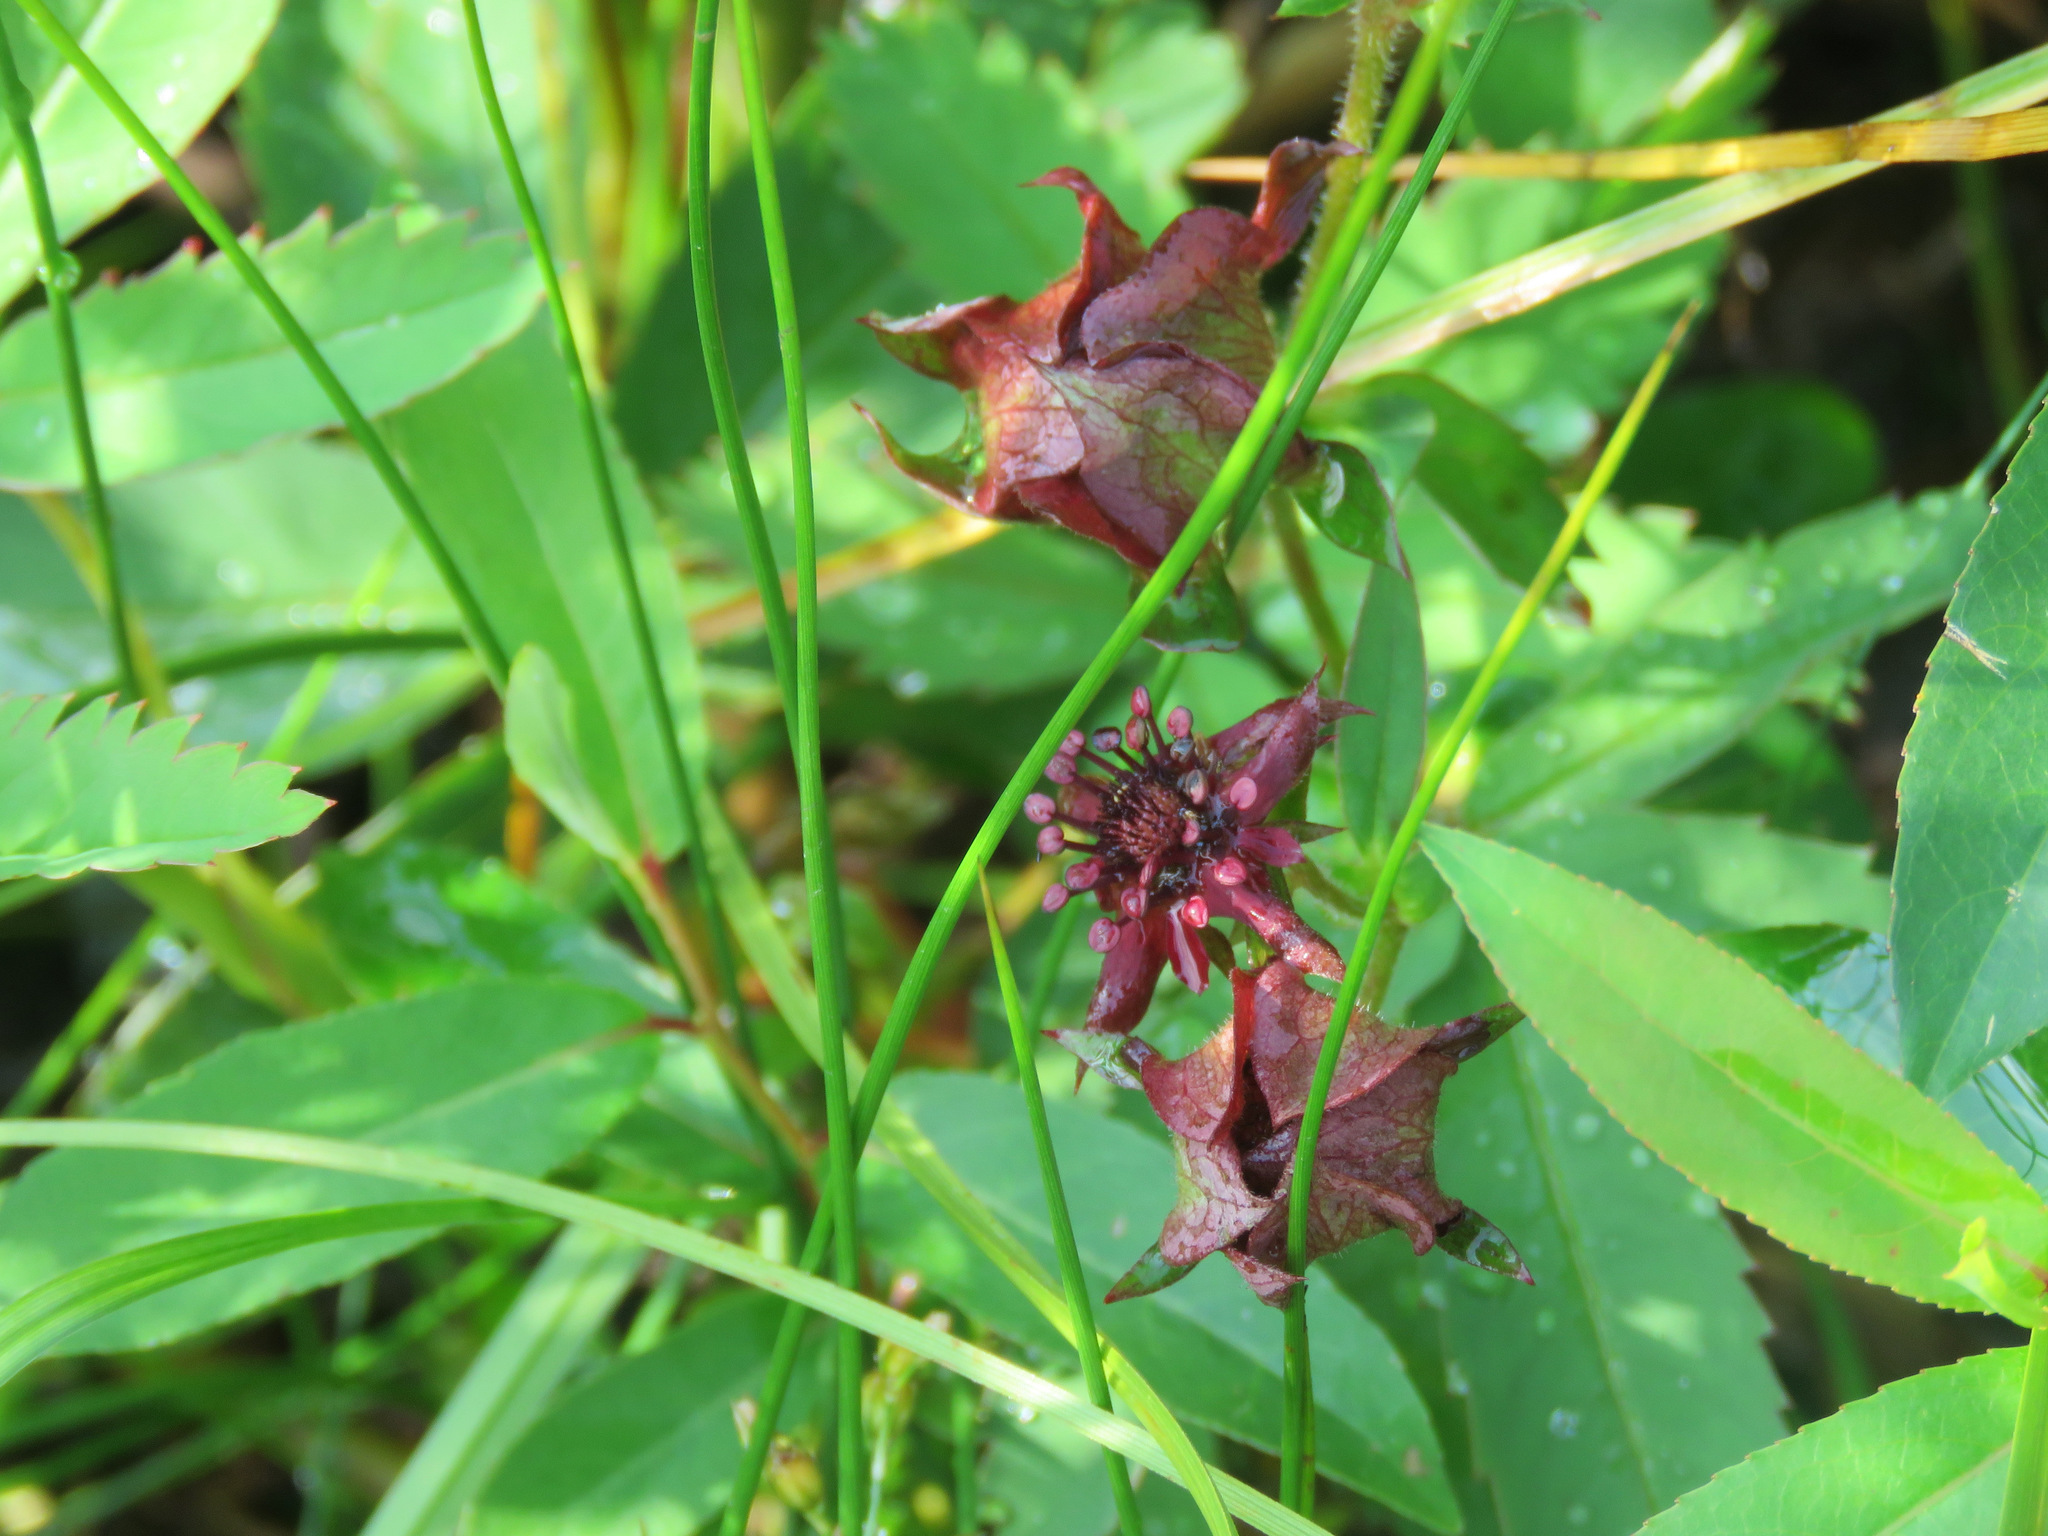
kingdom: Plantae
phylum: Tracheophyta
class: Magnoliopsida
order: Rosales
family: Rosaceae
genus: Comarum
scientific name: Comarum palustre
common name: Marsh cinquefoil
